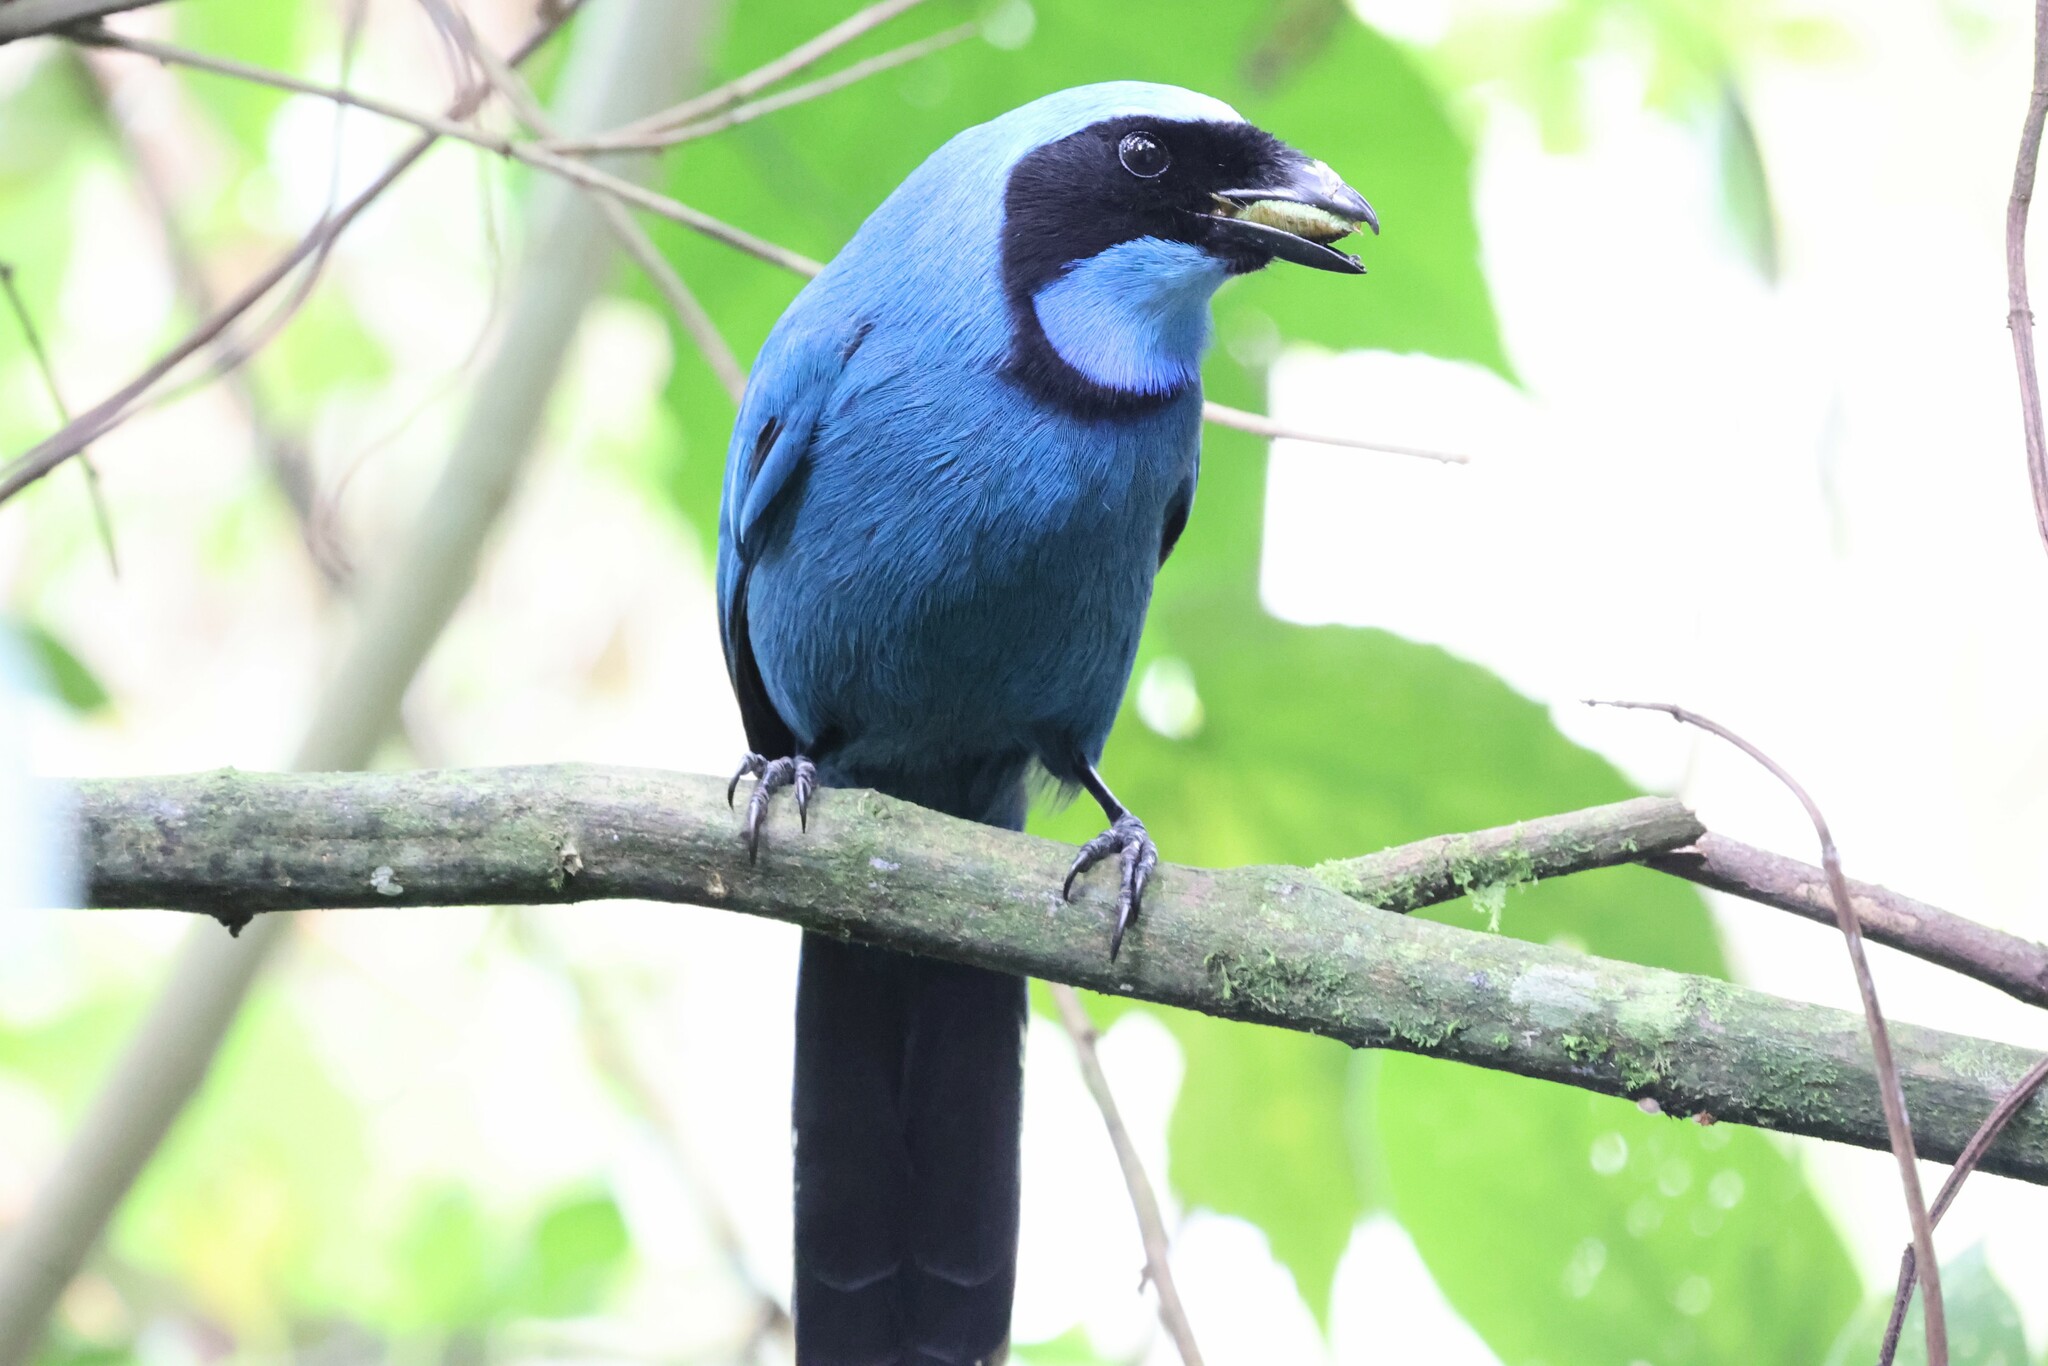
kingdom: Animalia
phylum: Chordata
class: Aves
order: Passeriformes
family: Corvidae
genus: Cyanolyca
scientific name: Cyanolyca turcosa
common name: Turquoise jay
